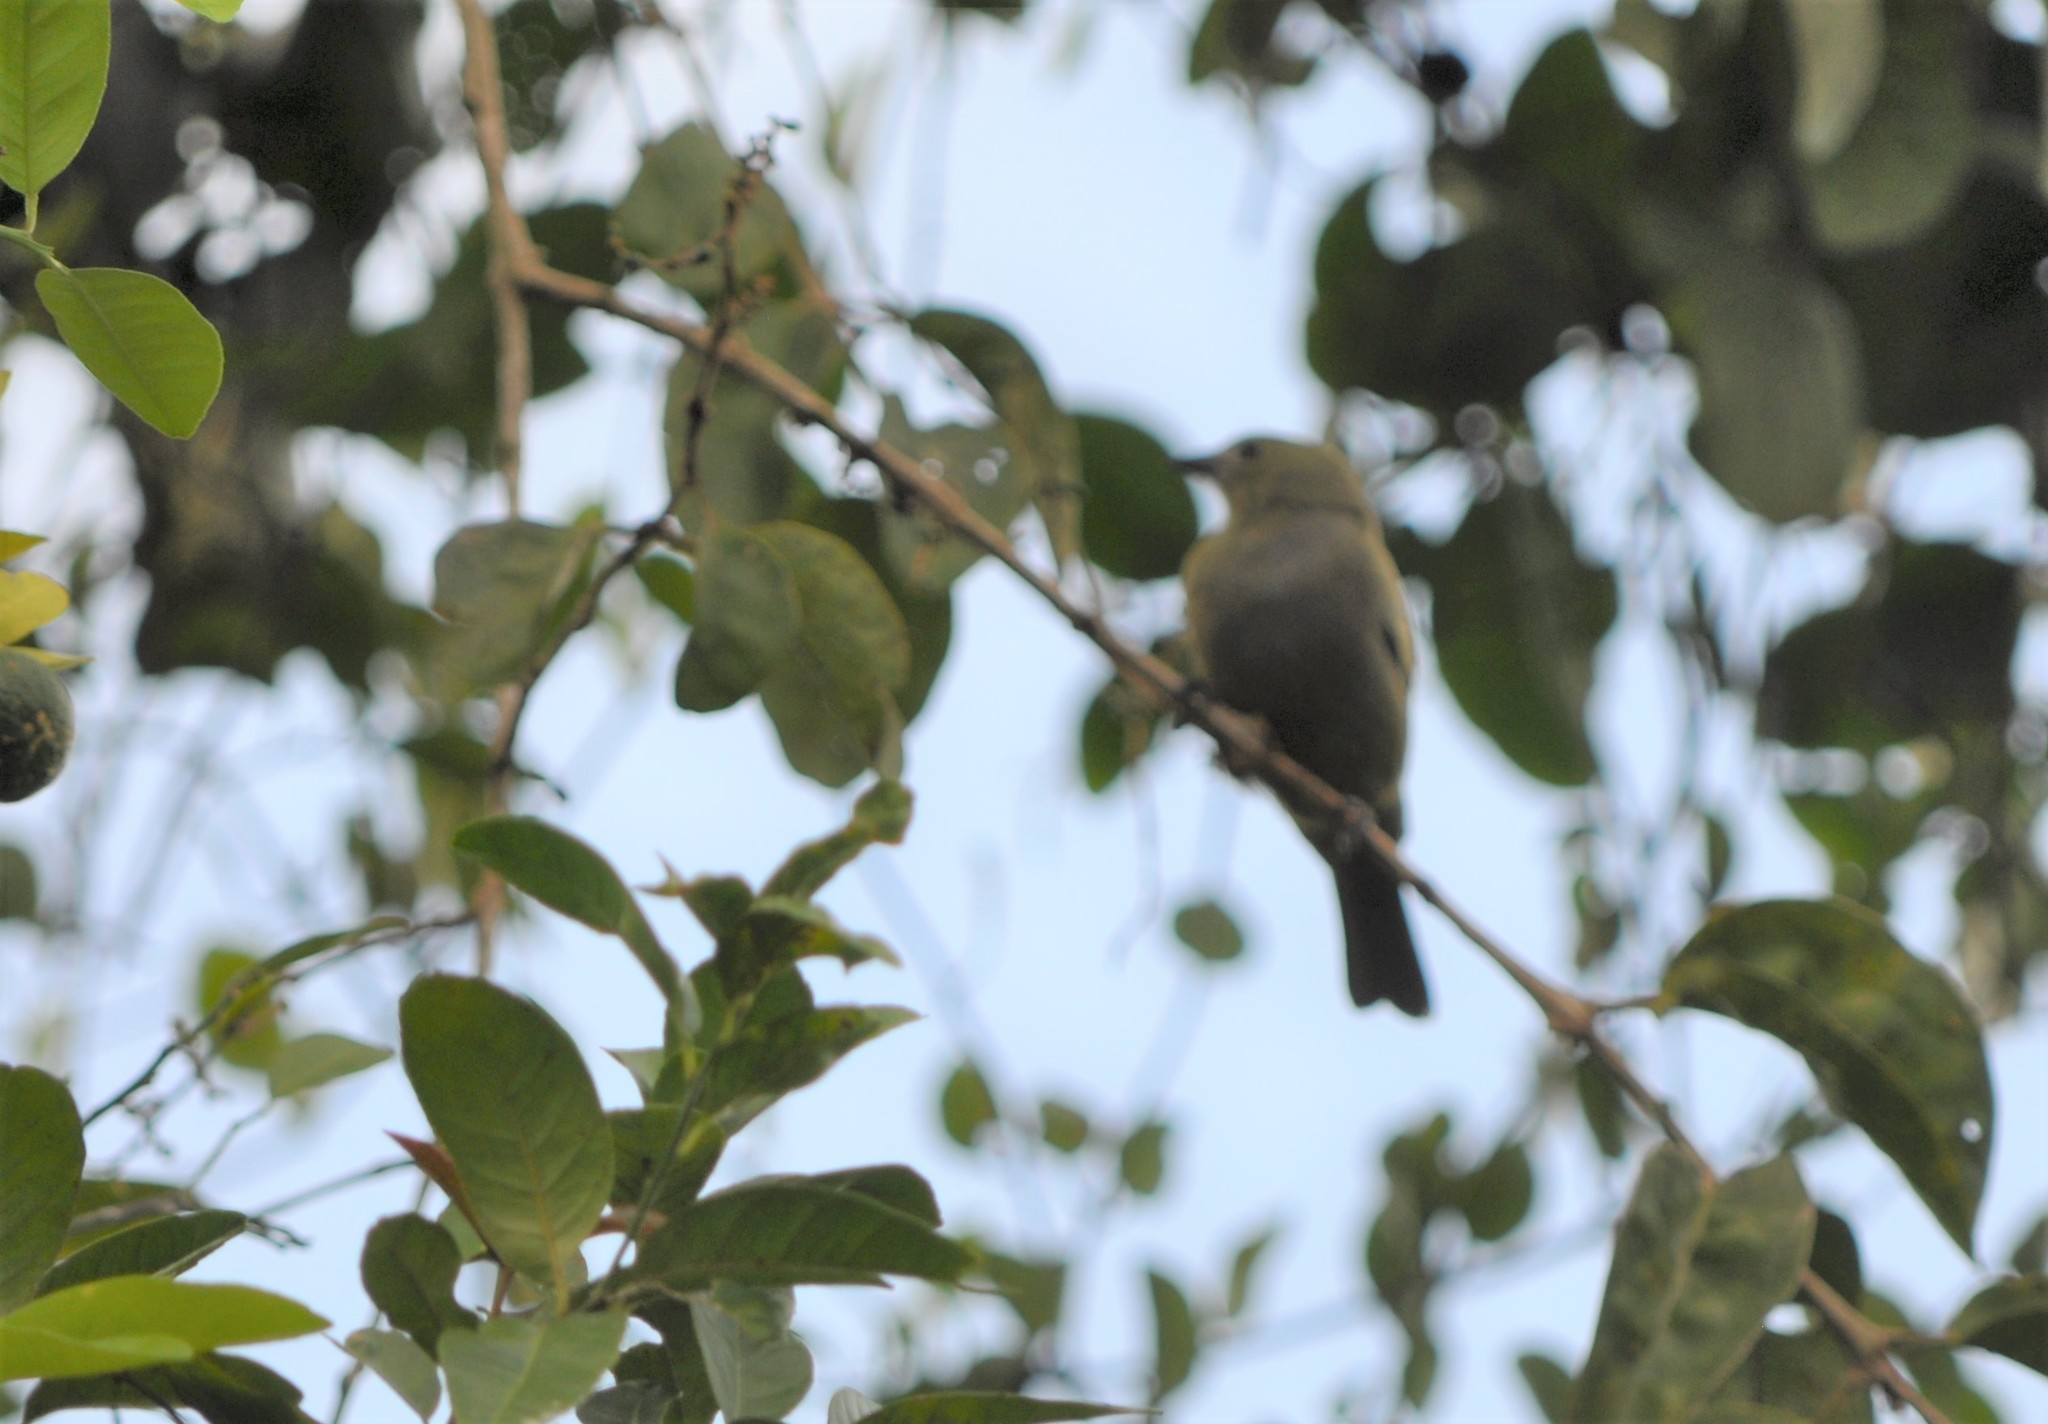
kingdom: Animalia
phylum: Chordata
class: Aves
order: Passeriformes
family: Thraupidae
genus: Thraupis
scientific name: Thraupis palmarum
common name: Palm tanager
